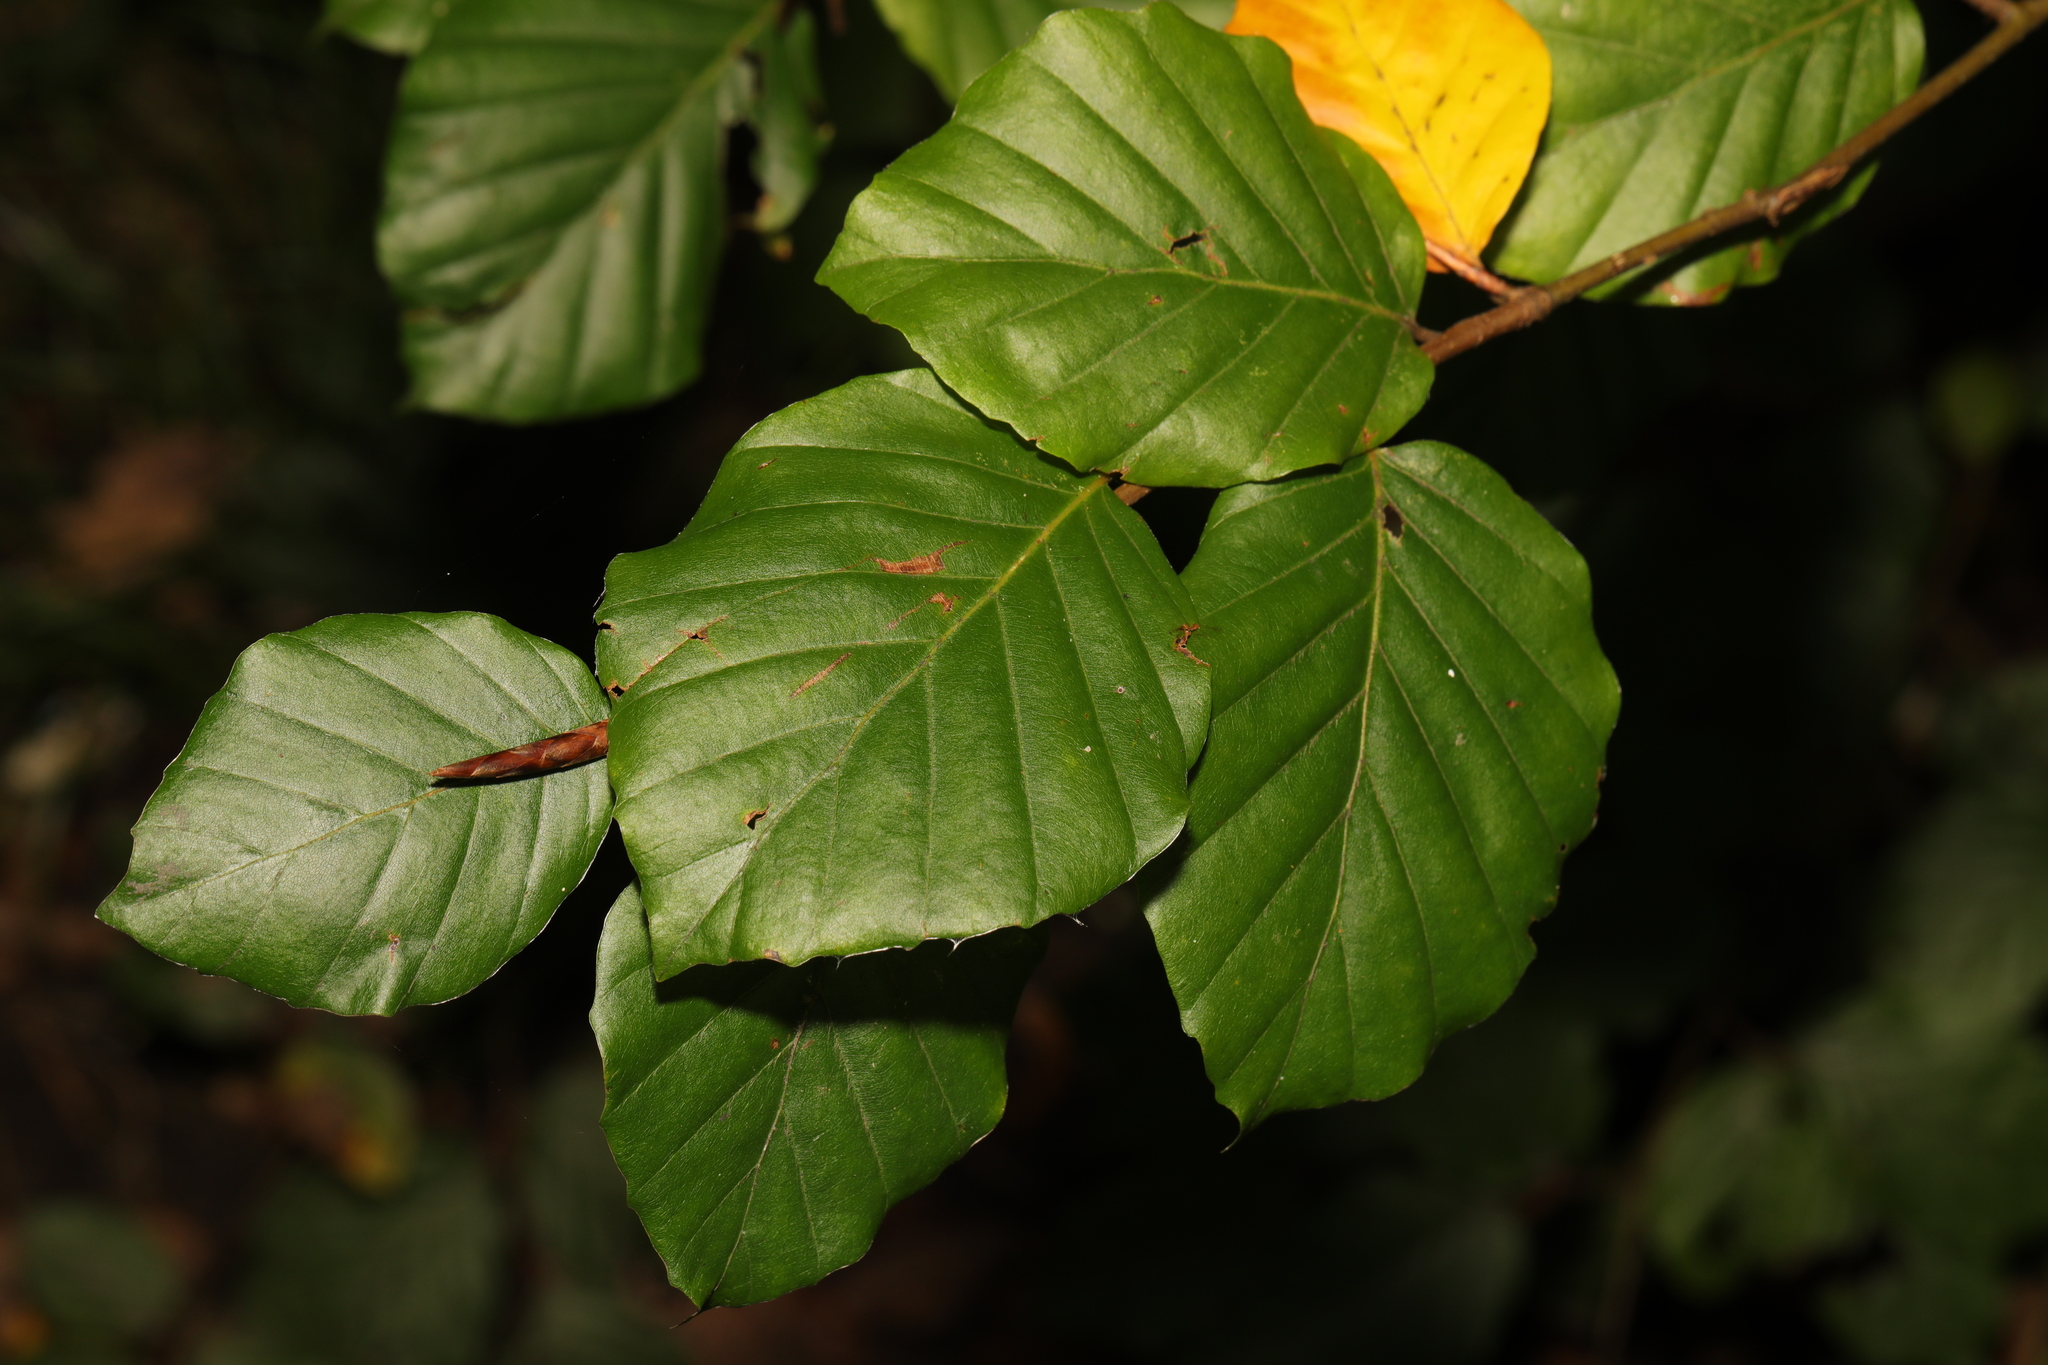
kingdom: Plantae
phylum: Tracheophyta
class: Magnoliopsida
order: Fagales
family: Fagaceae
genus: Fagus
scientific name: Fagus sylvatica
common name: Beech
